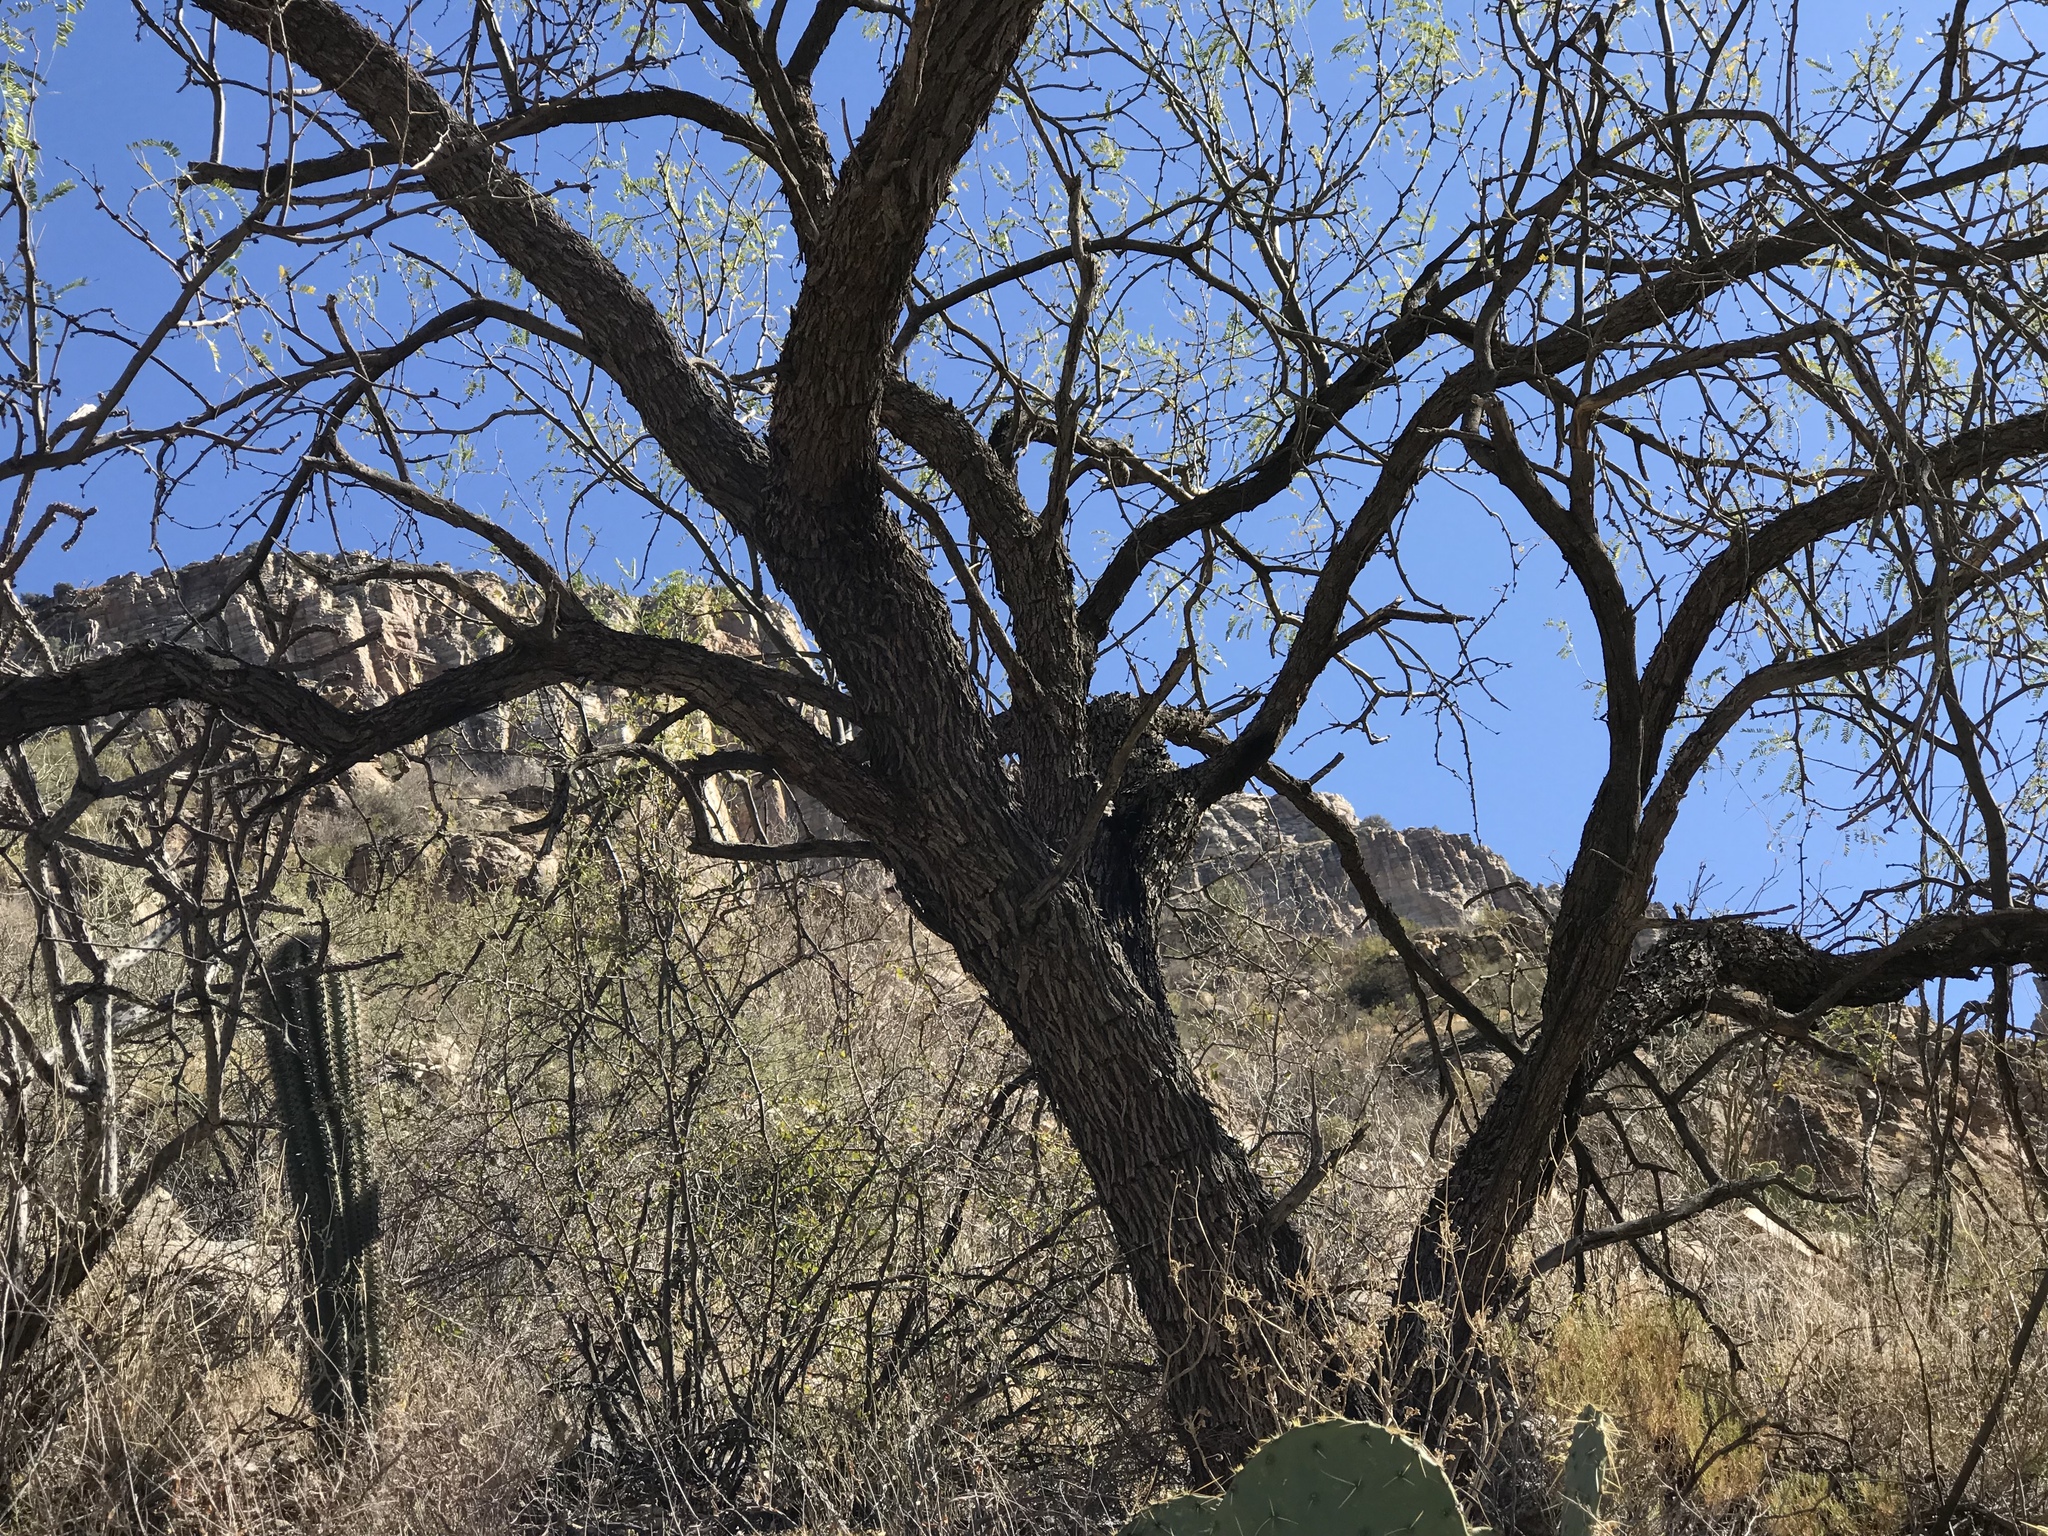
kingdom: Plantae
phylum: Tracheophyta
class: Magnoliopsida
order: Fabales
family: Fabaceae
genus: Prosopis
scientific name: Prosopis velutina
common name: Velvet mesquite
